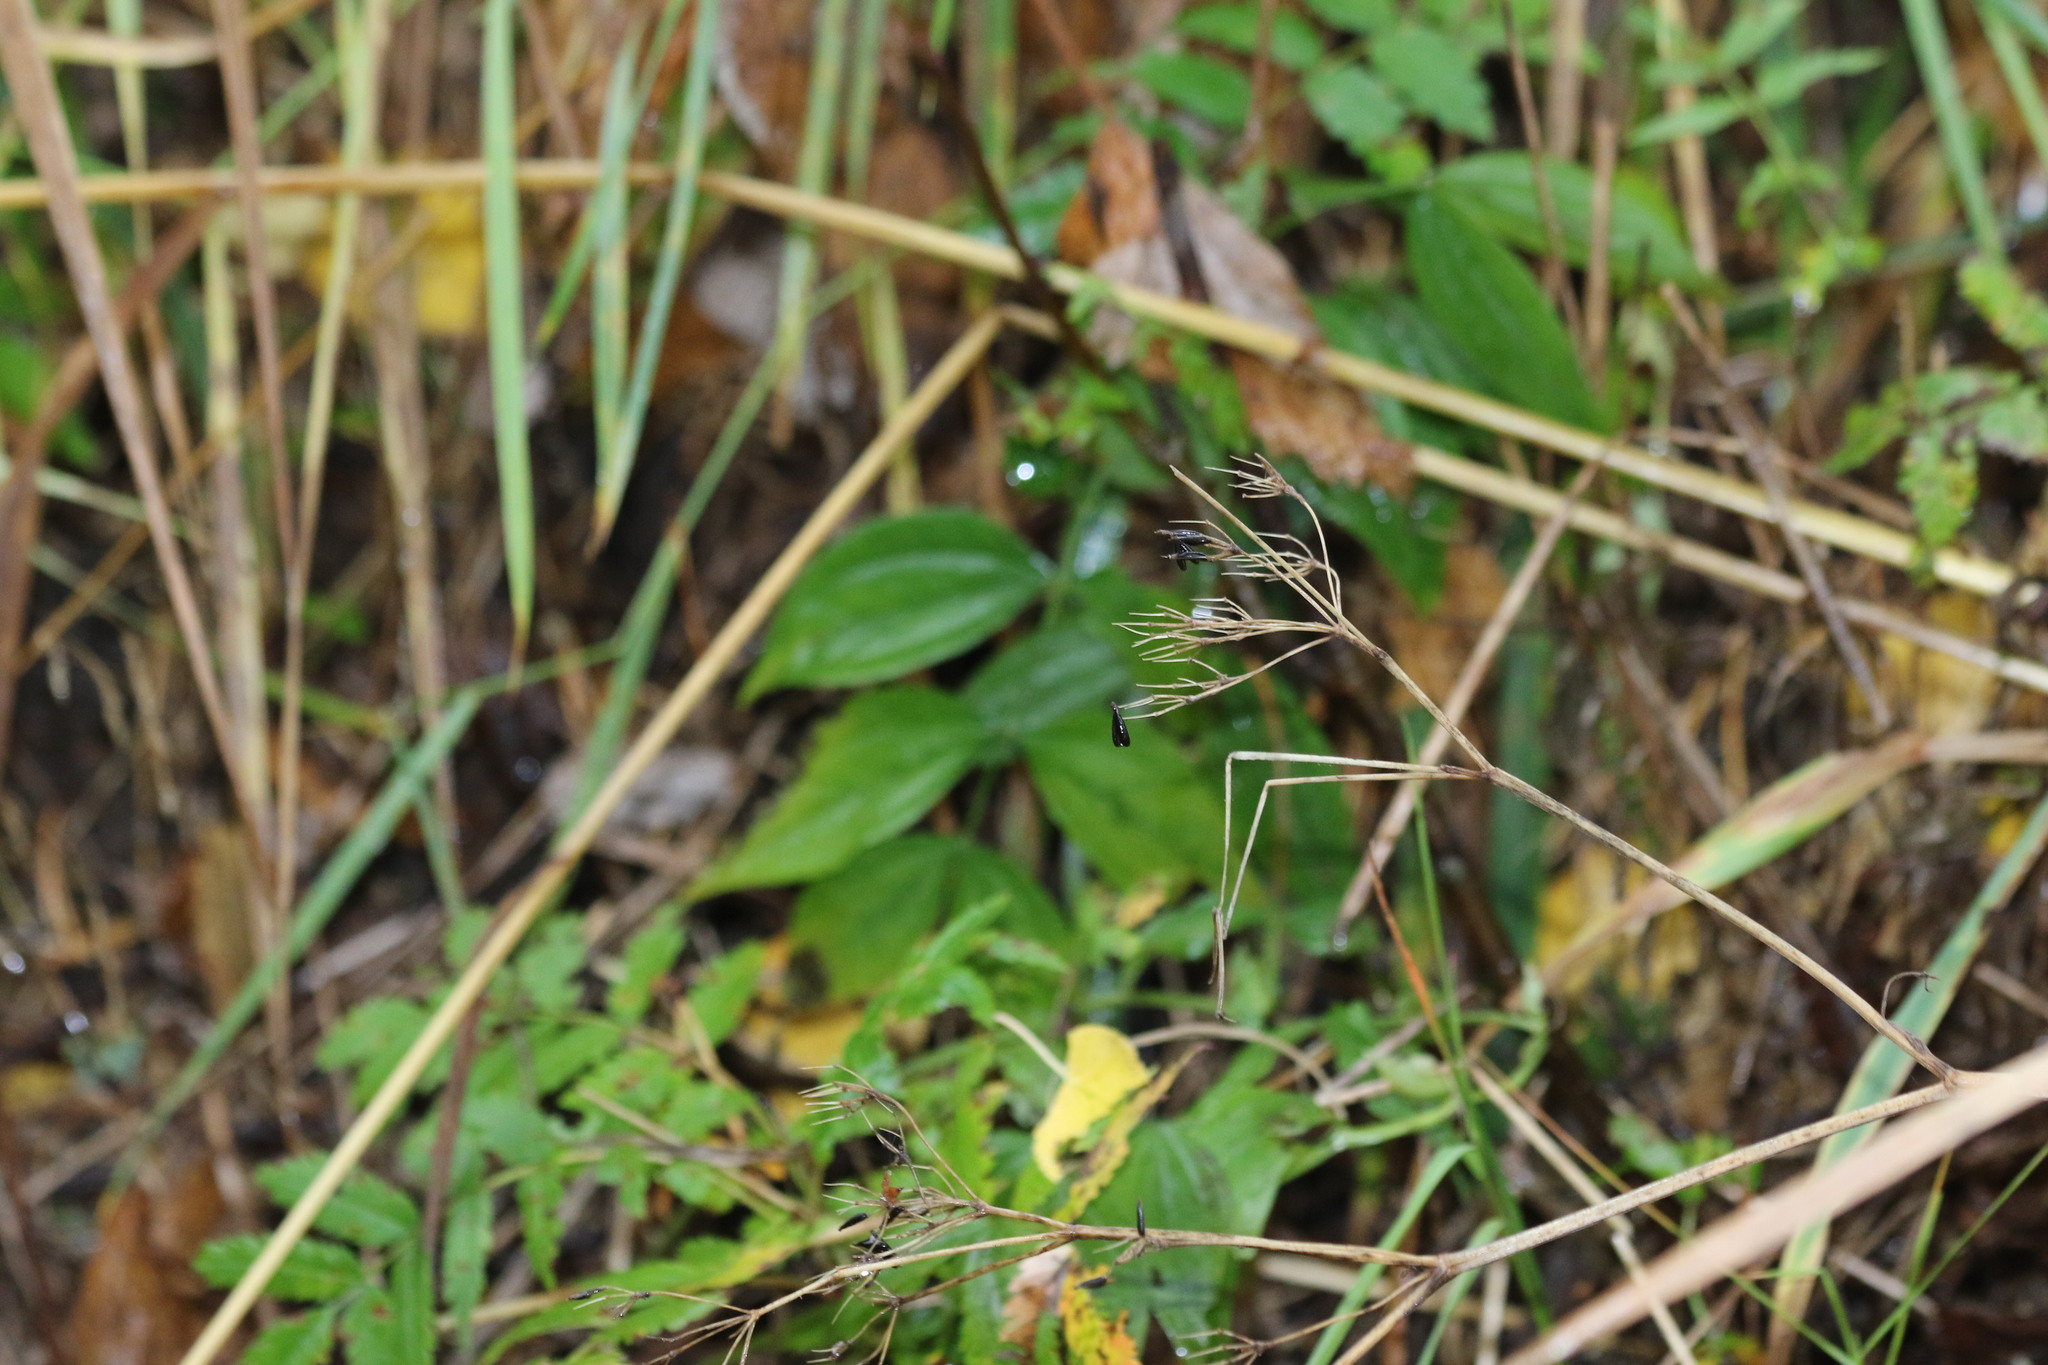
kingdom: Plantae
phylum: Tracheophyta
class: Magnoliopsida
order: Fabales
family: Fabaceae
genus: Lathyrus
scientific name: Lathyrus vernus
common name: Spring pea
